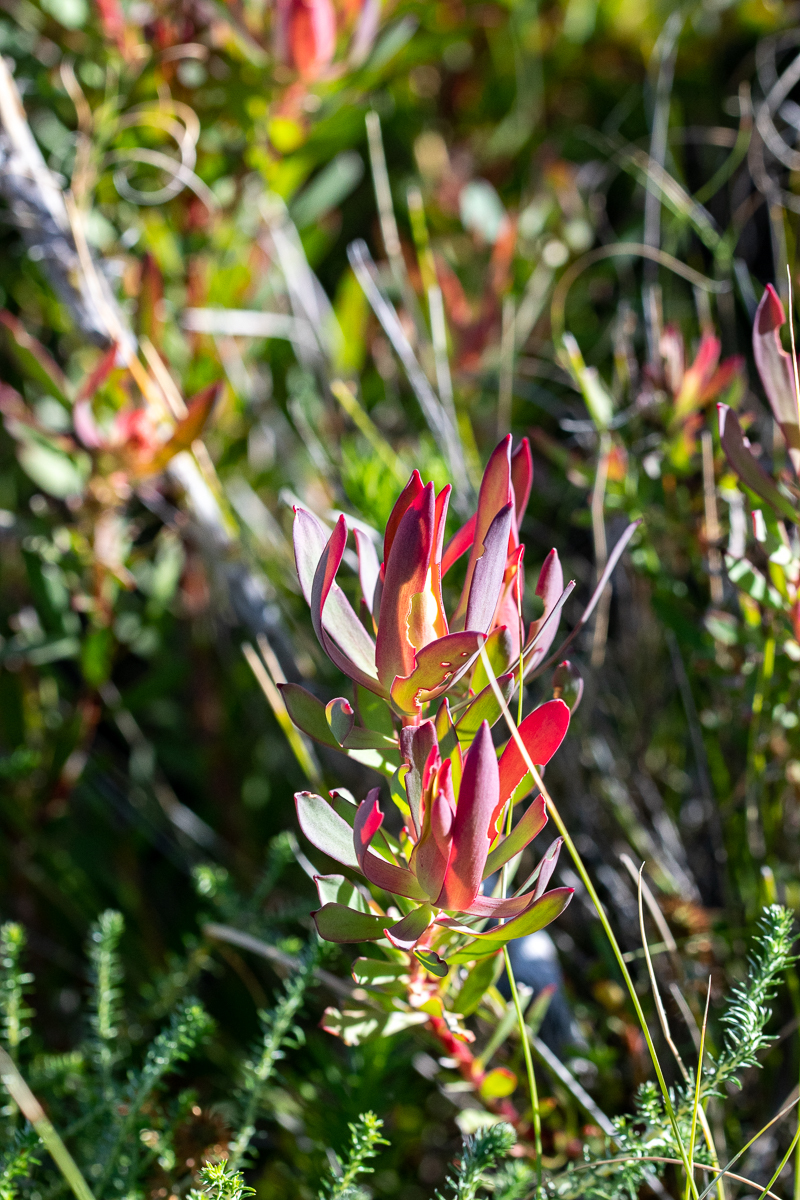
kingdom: Plantae
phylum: Tracheophyta
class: Magnoliopsida
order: Proteales
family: Proteaceae
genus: Leucadendron
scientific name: Leucadendron salignum
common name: Common sunshine conebush
